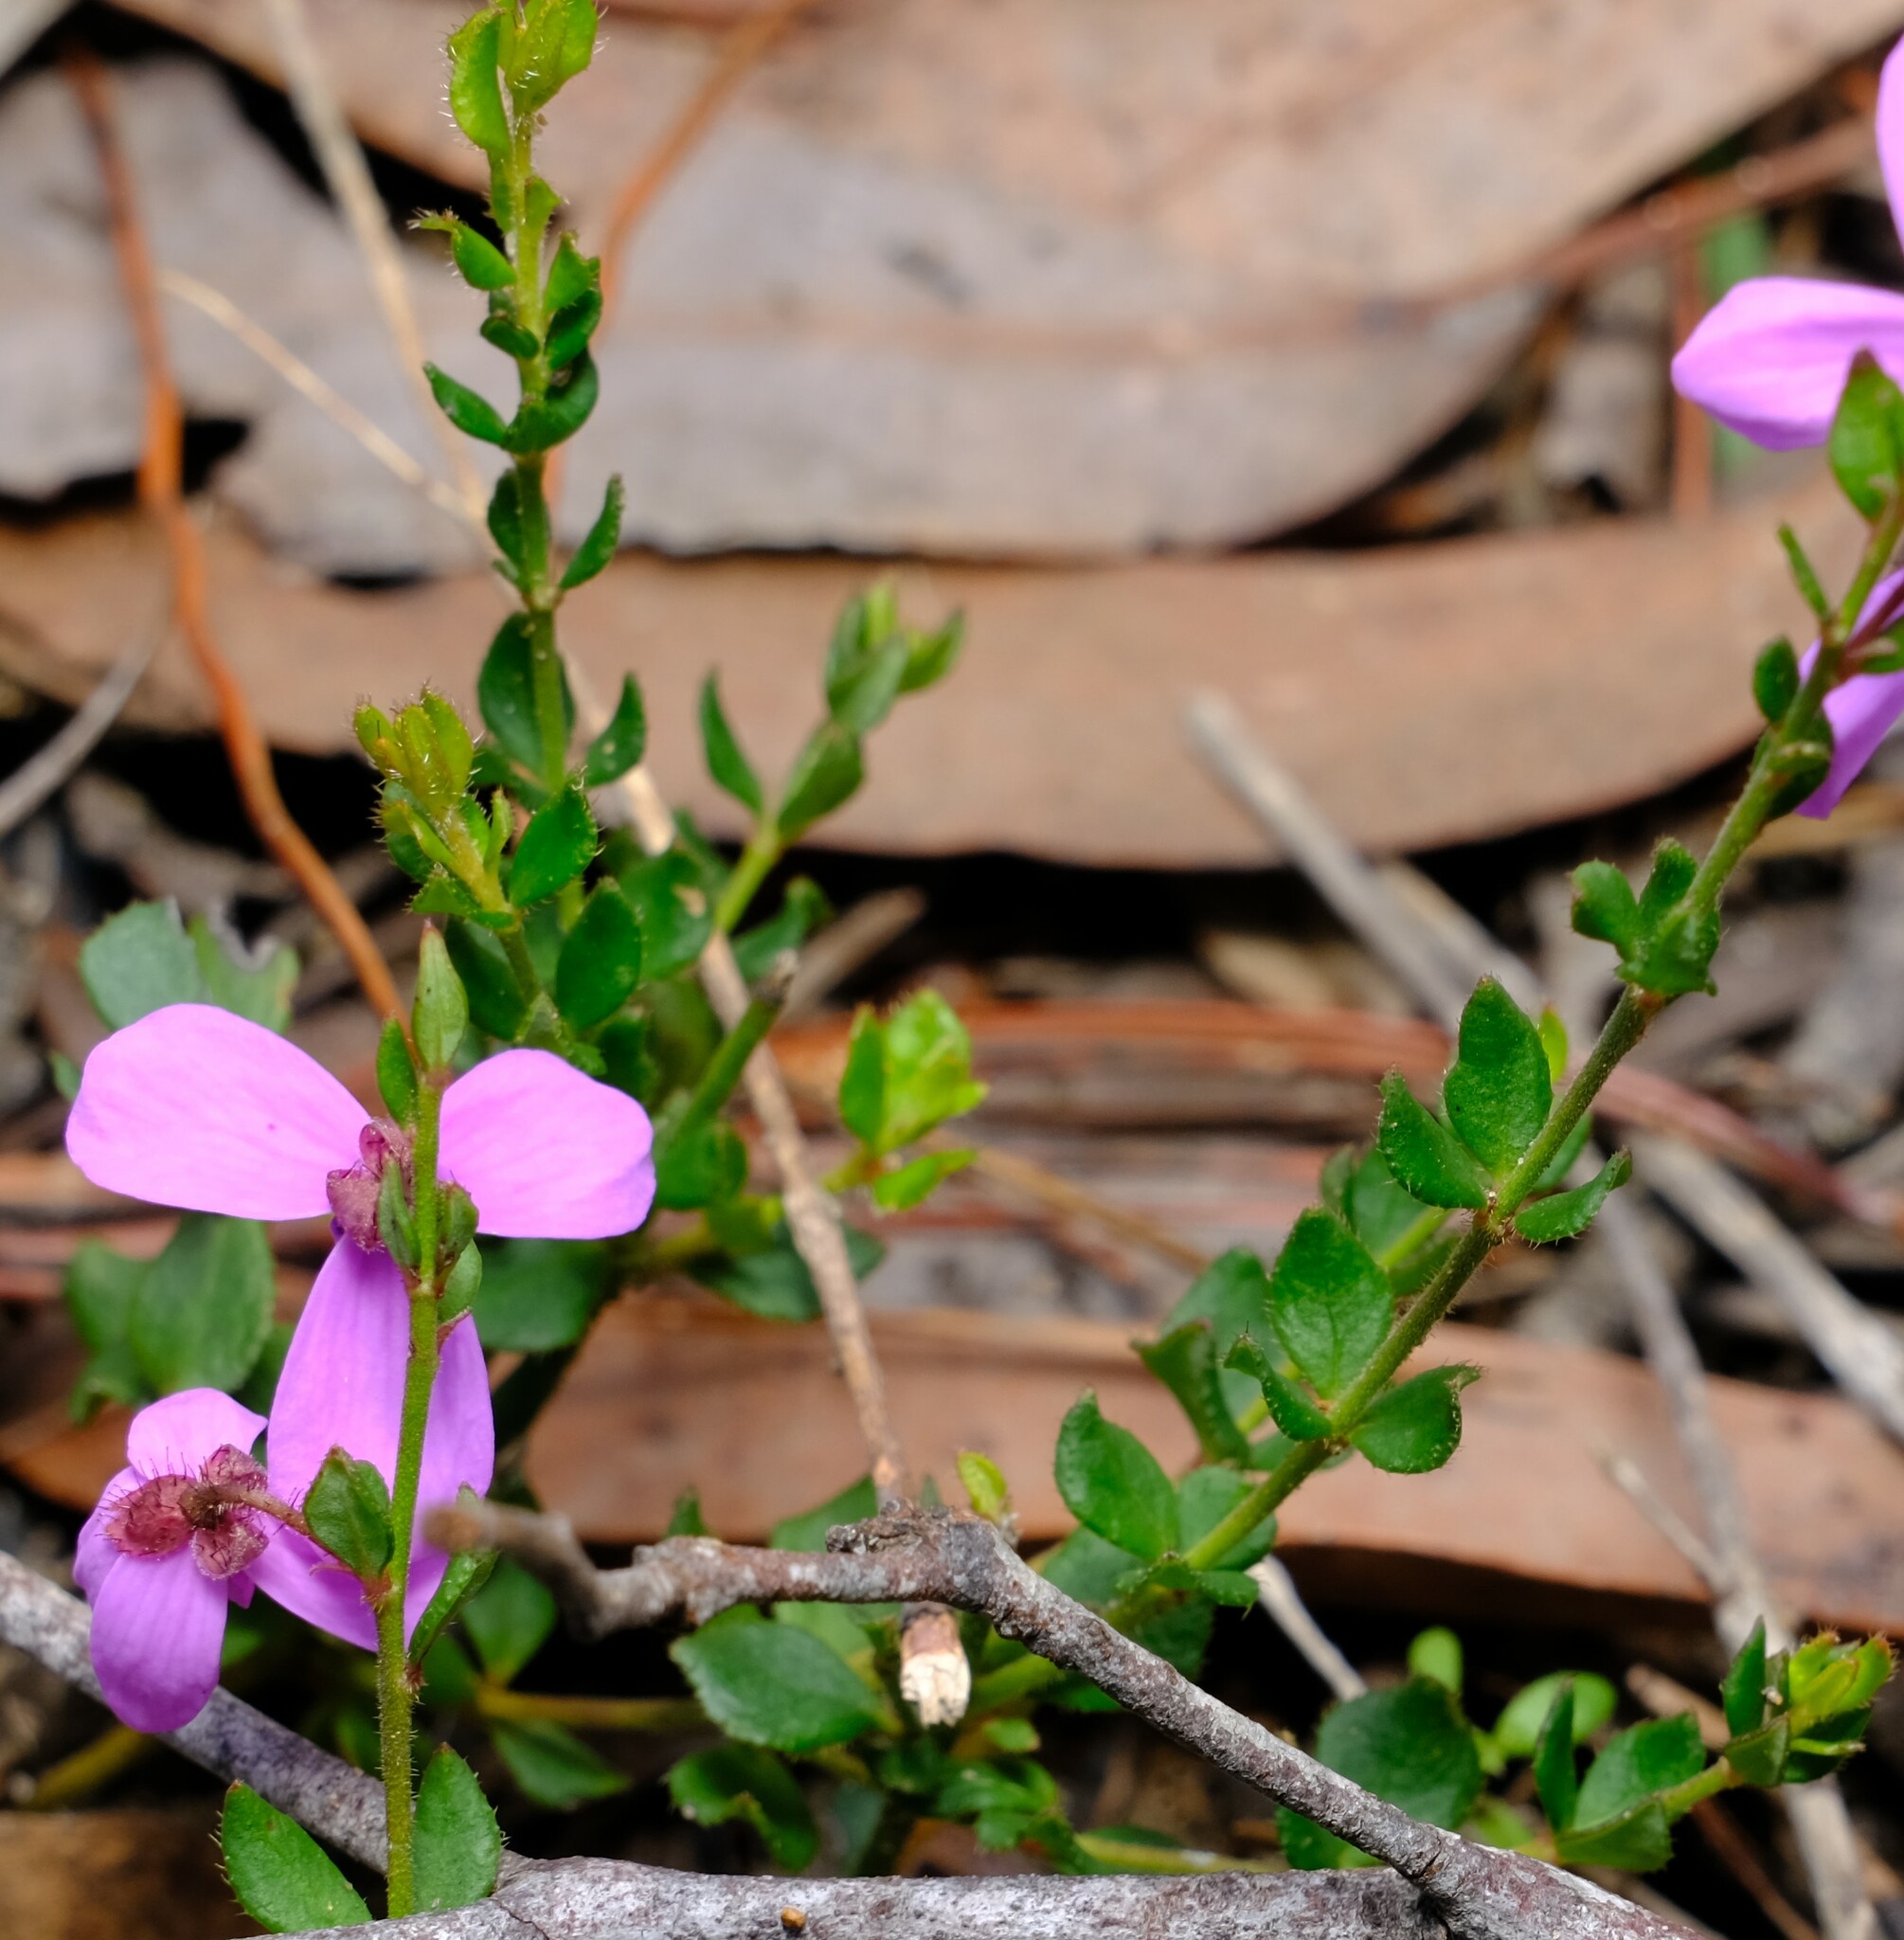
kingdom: Plantae
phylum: Tracheophyta
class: Magnoliopsida
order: Oxalidales
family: Elaeocarpaceae
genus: Tetratheca
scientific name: Tetratheca ciliata
